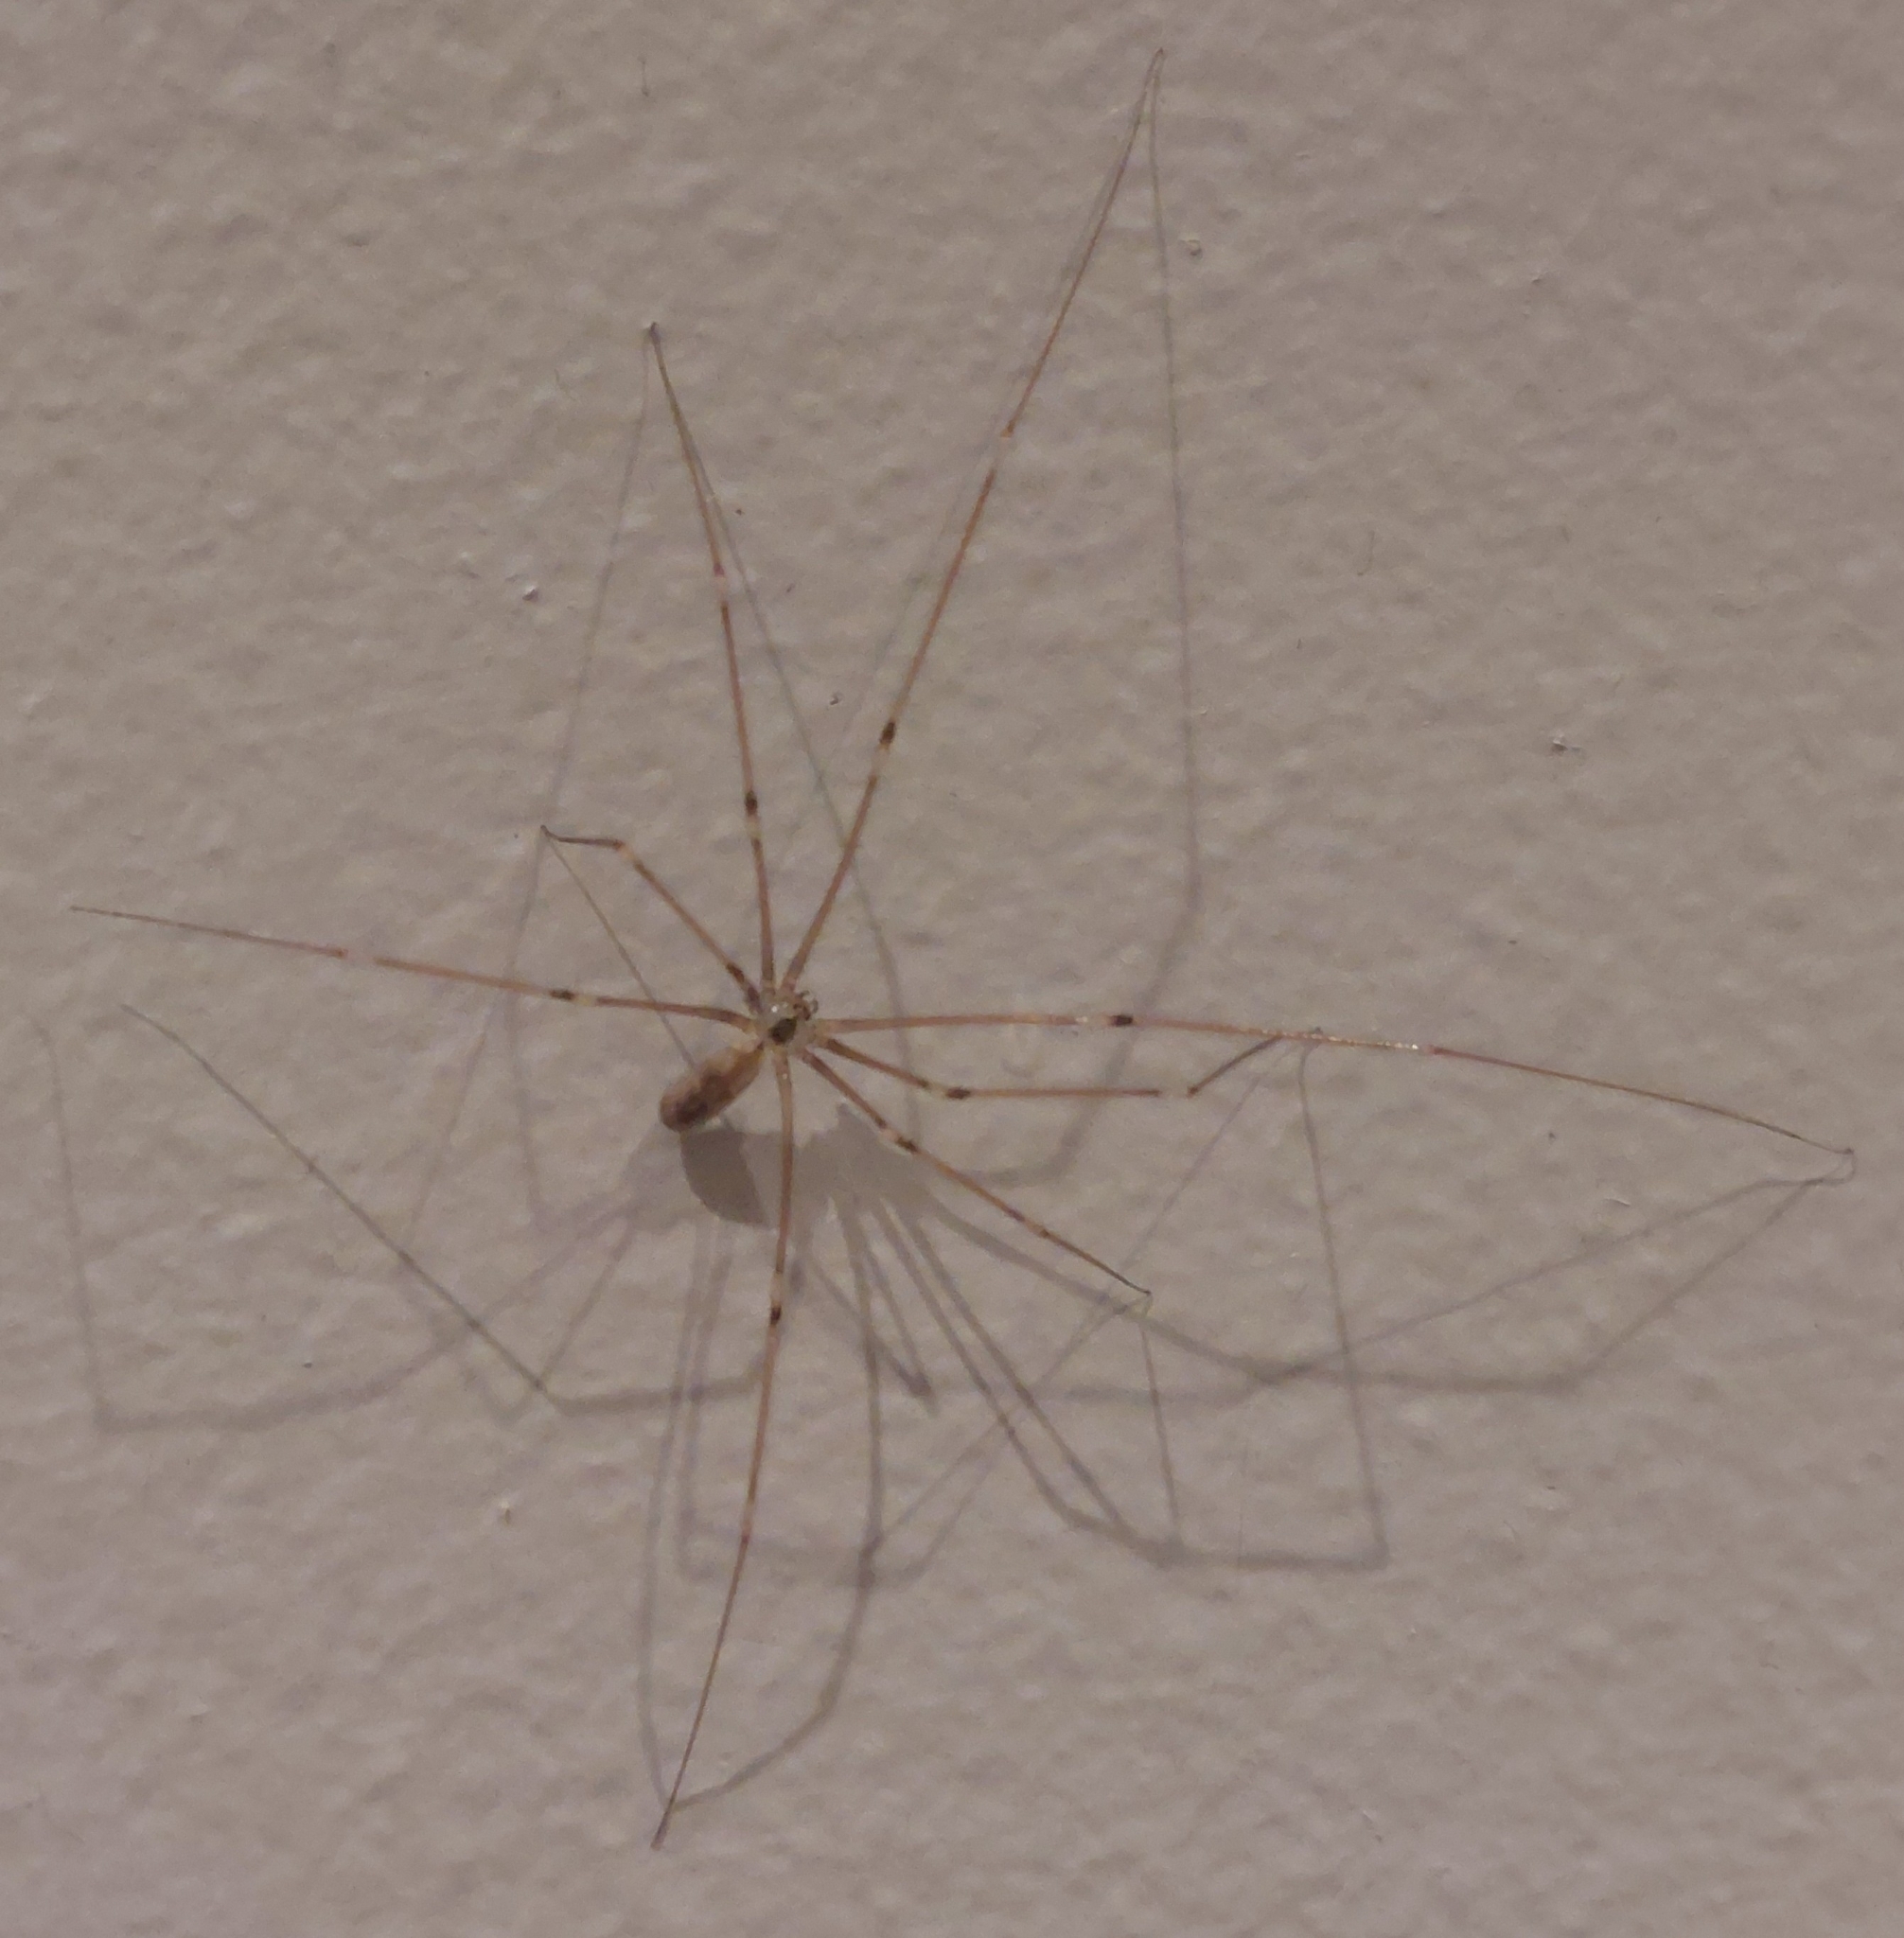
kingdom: Animalia
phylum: Arthropoda
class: Arachnida
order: Araneae
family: Pholcidae
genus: Pholcus
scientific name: Pholcus phalangioides
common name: Longbodied cellar spider
